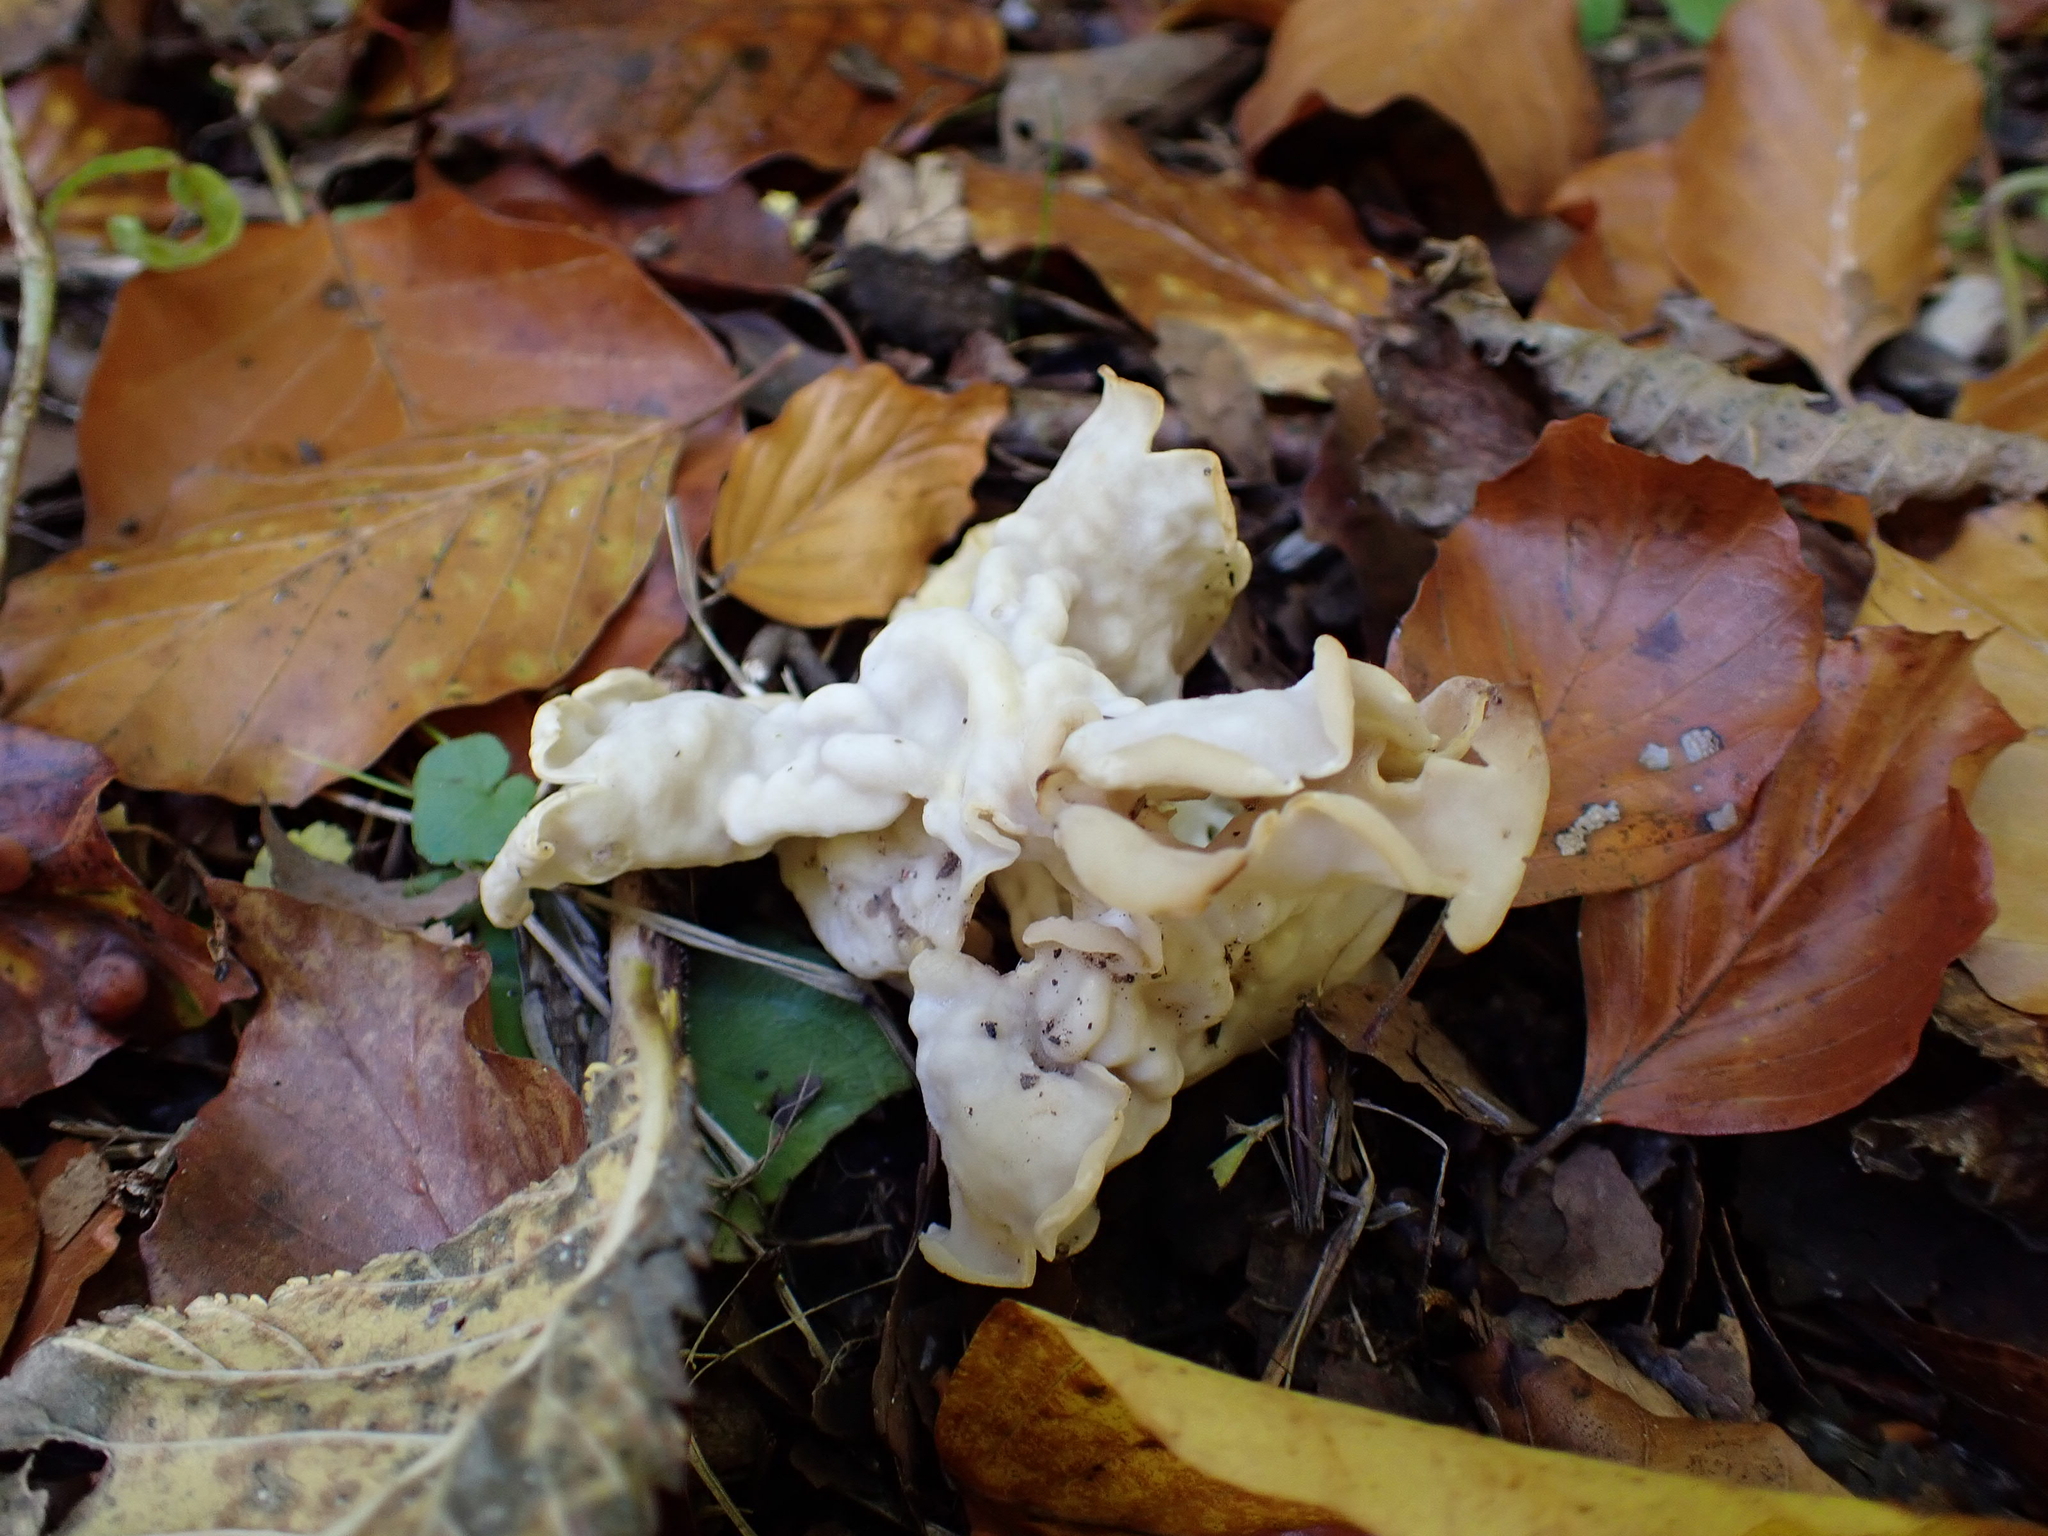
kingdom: Fungi
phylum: Ascomycota
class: Pezizomycetes
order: Pezizales
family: Helvellaceae
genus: Helvella
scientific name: Helvella crispa
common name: White saddle
